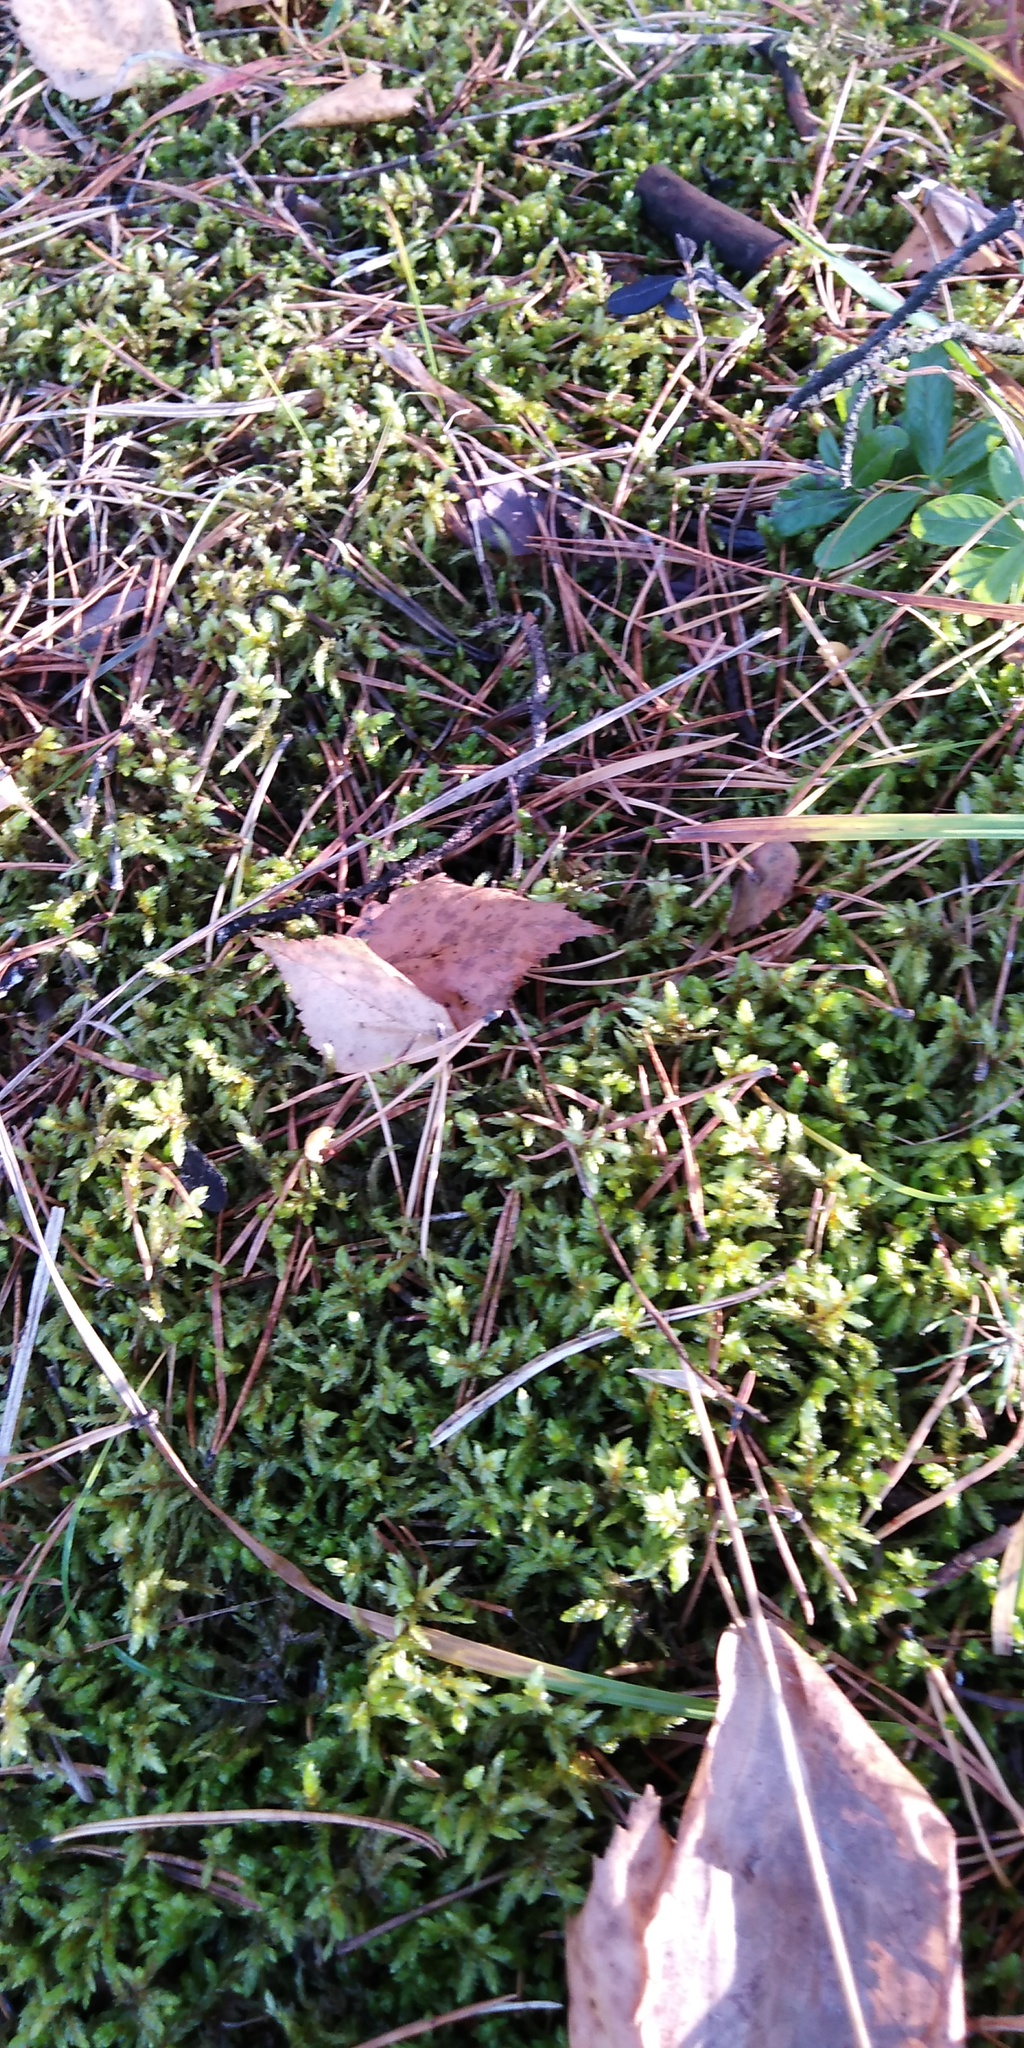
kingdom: Plantae
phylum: Bryophyta
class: Bryopsida
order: Hypnales
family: Hylocomiaceae
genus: Pleurozium
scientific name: Pleurozium schreberi
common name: Red-stemmed feather moss
